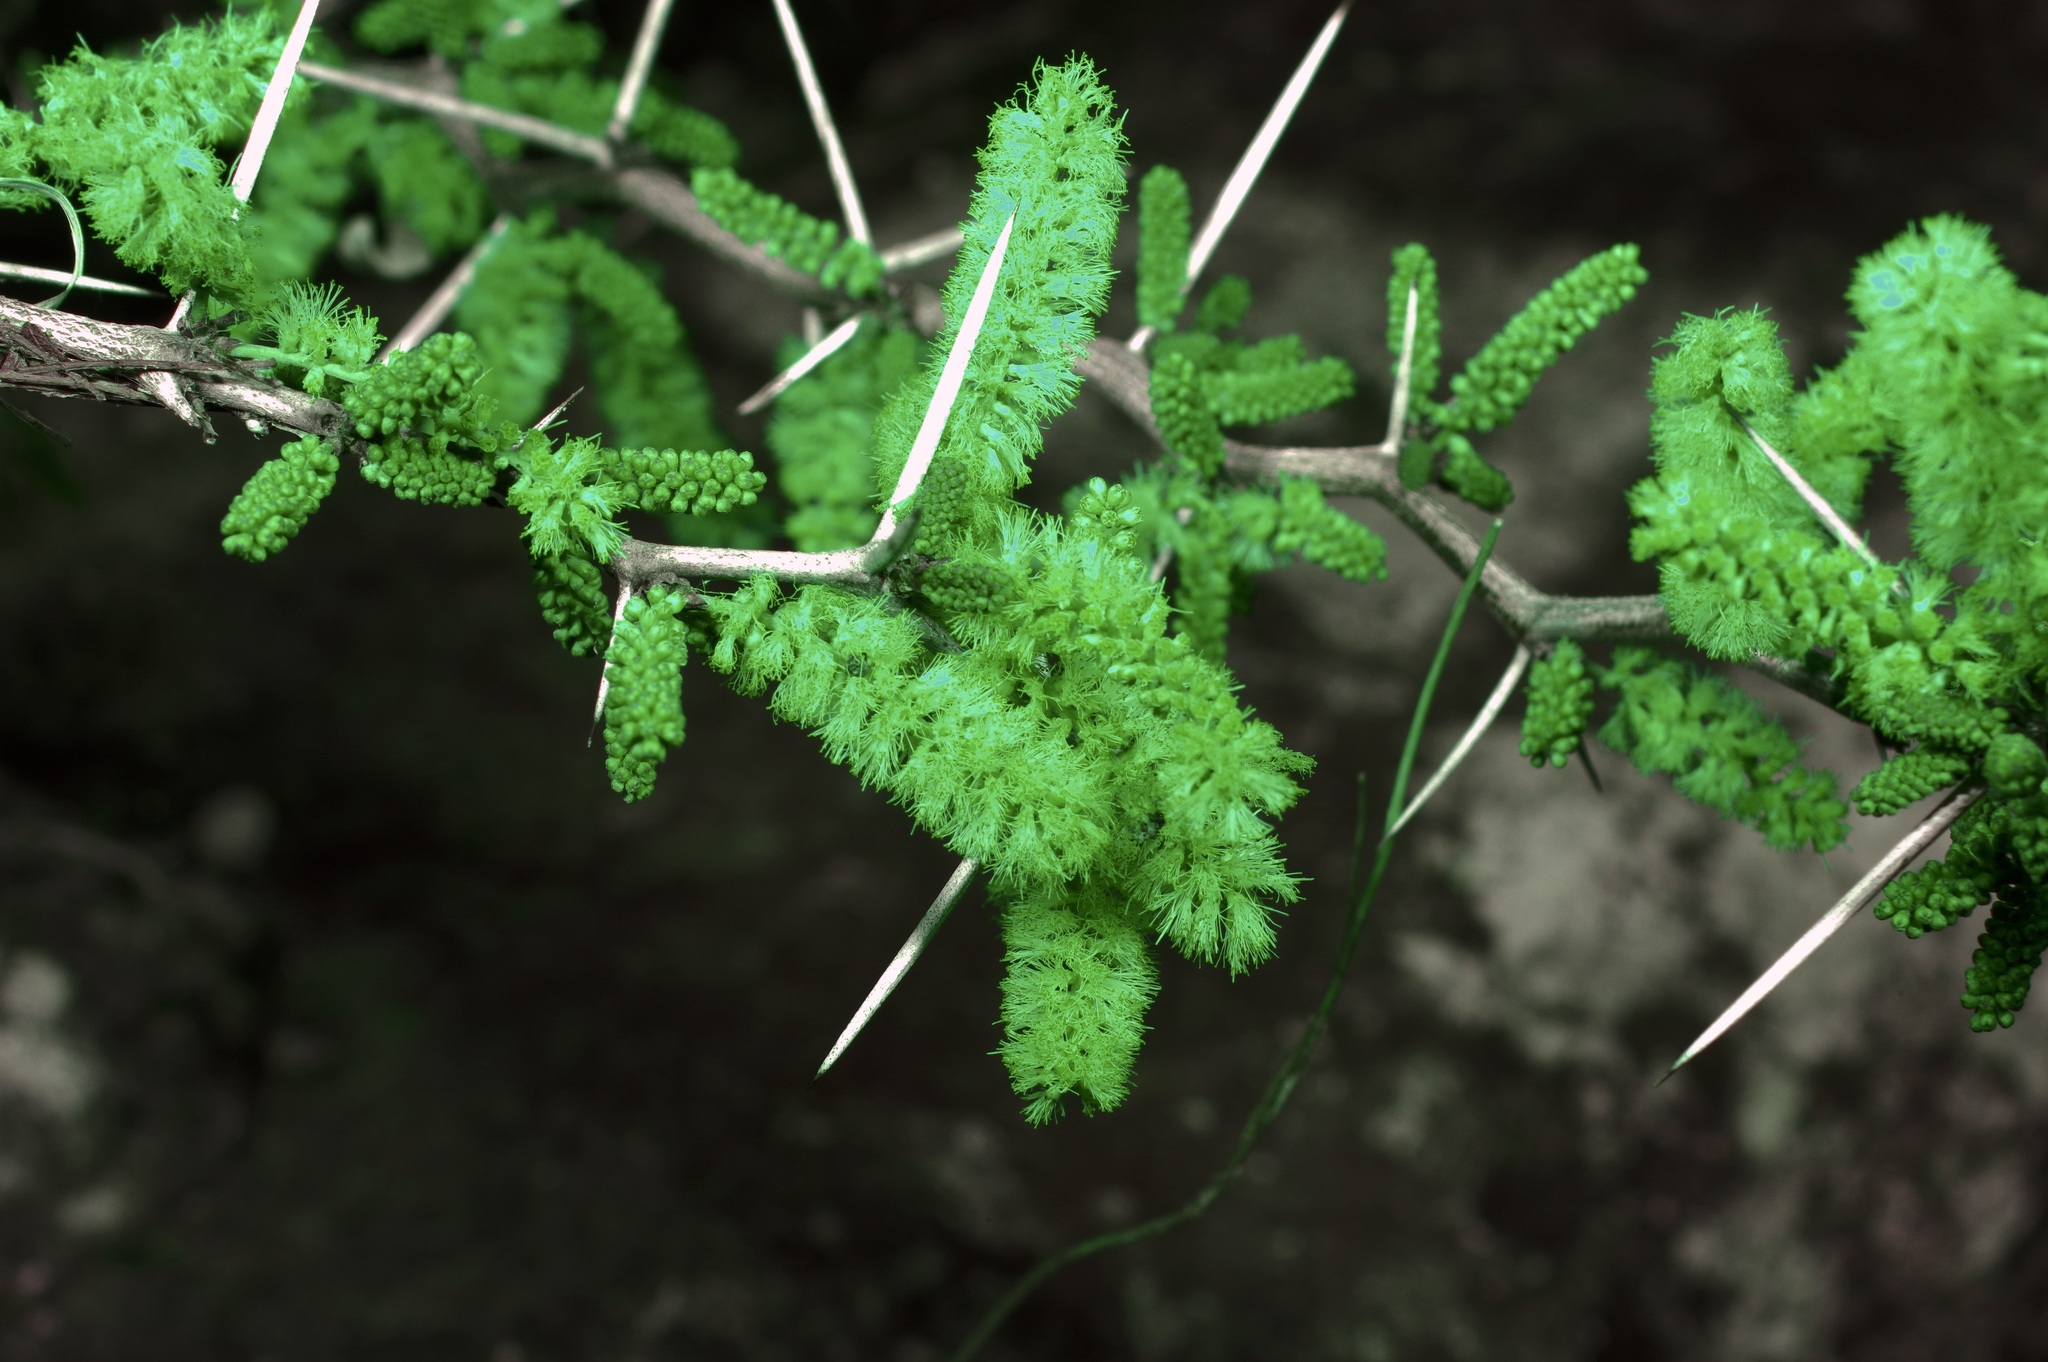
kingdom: Plantae
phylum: Tracheophyta
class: Magnoliopsida
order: Fabales
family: Fabaceae
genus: Vachellia
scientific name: Vachellia rigidula
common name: Blackbrush
